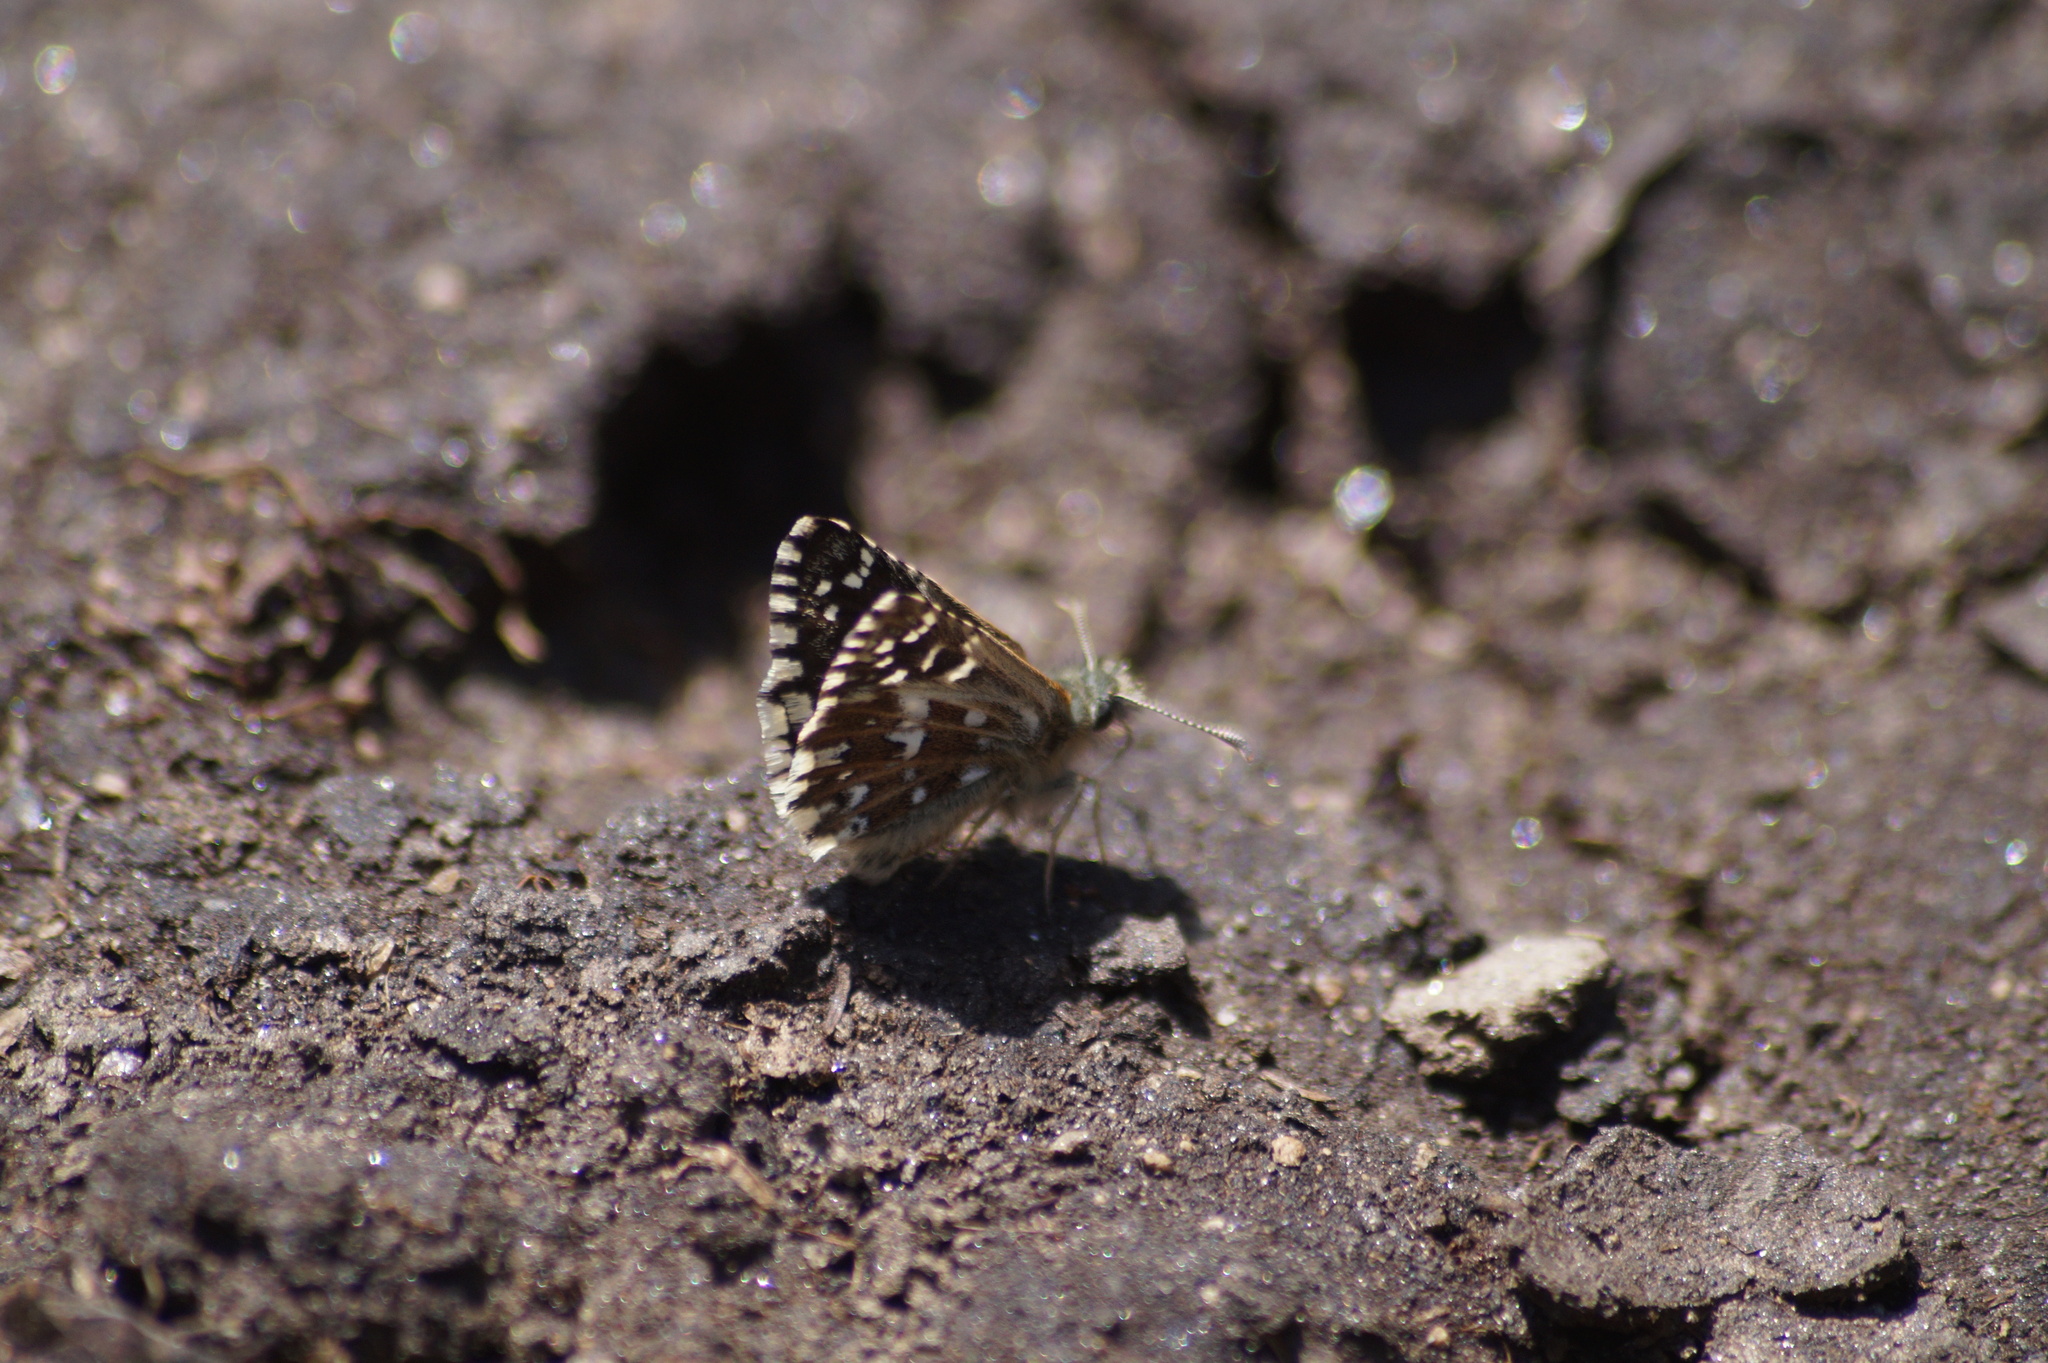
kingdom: Animalia
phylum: Arthropoda
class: Insecta
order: Lepidoptera
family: Hesperiidae
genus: Pyrgus
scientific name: Pyrgus malvoides
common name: Southern grizzled skipper
